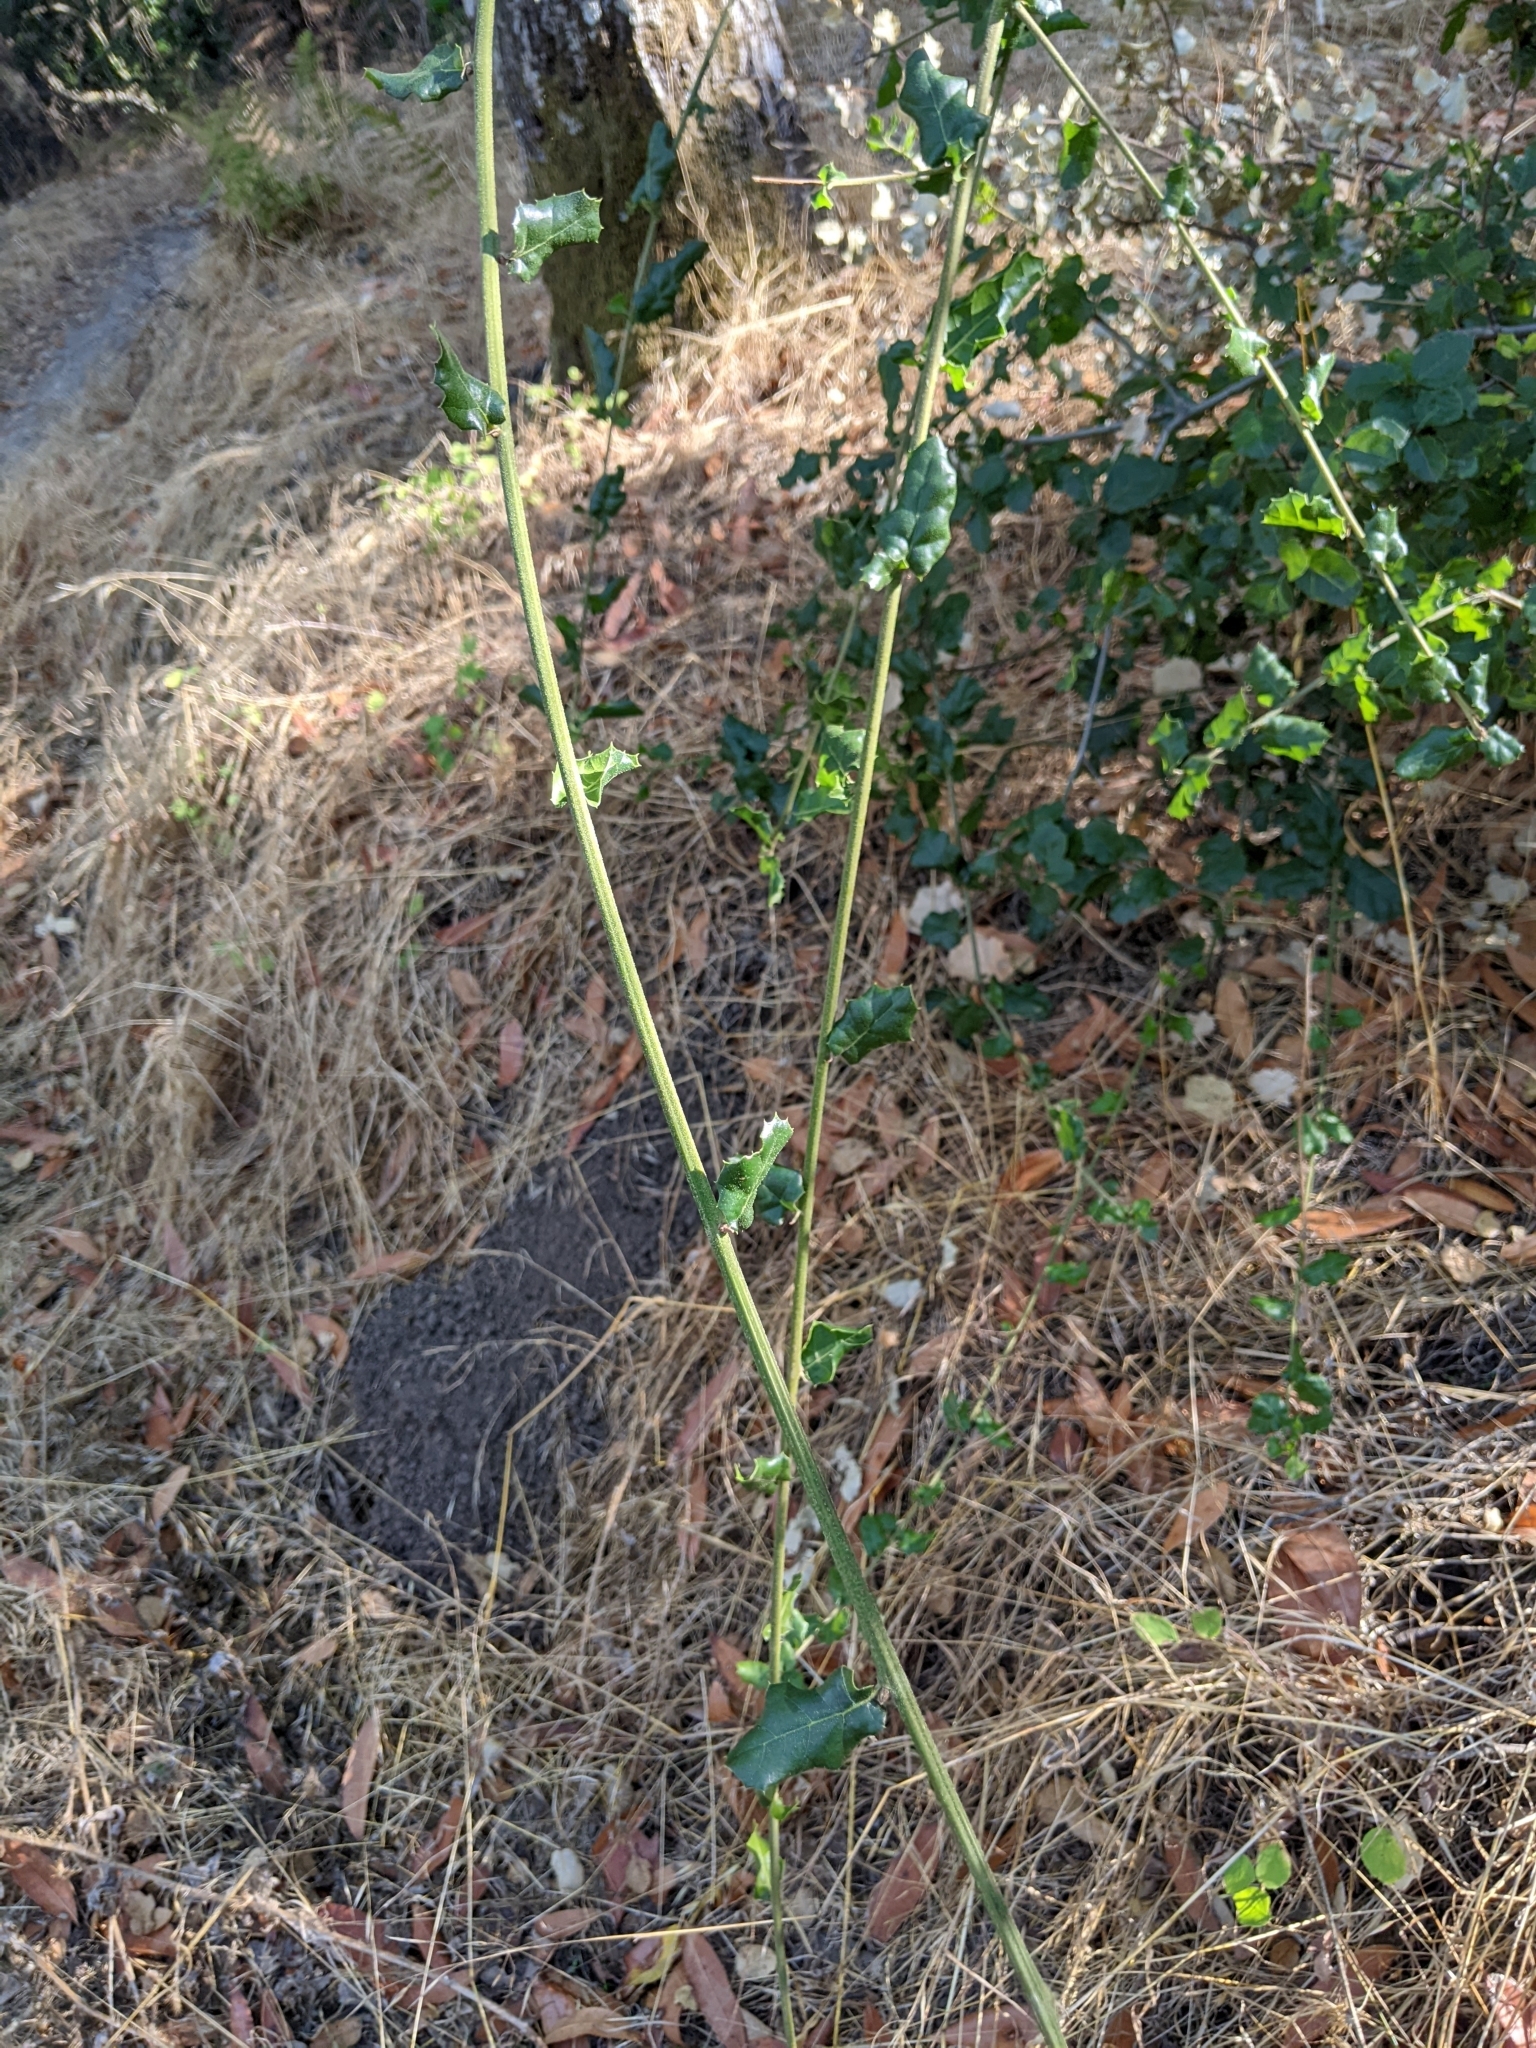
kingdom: Plantae
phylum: Tracheophyta
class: Magnoliopsida
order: Fagales
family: Fagaceae
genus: Quercus
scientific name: Quercus agrifolia
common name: California live oak
